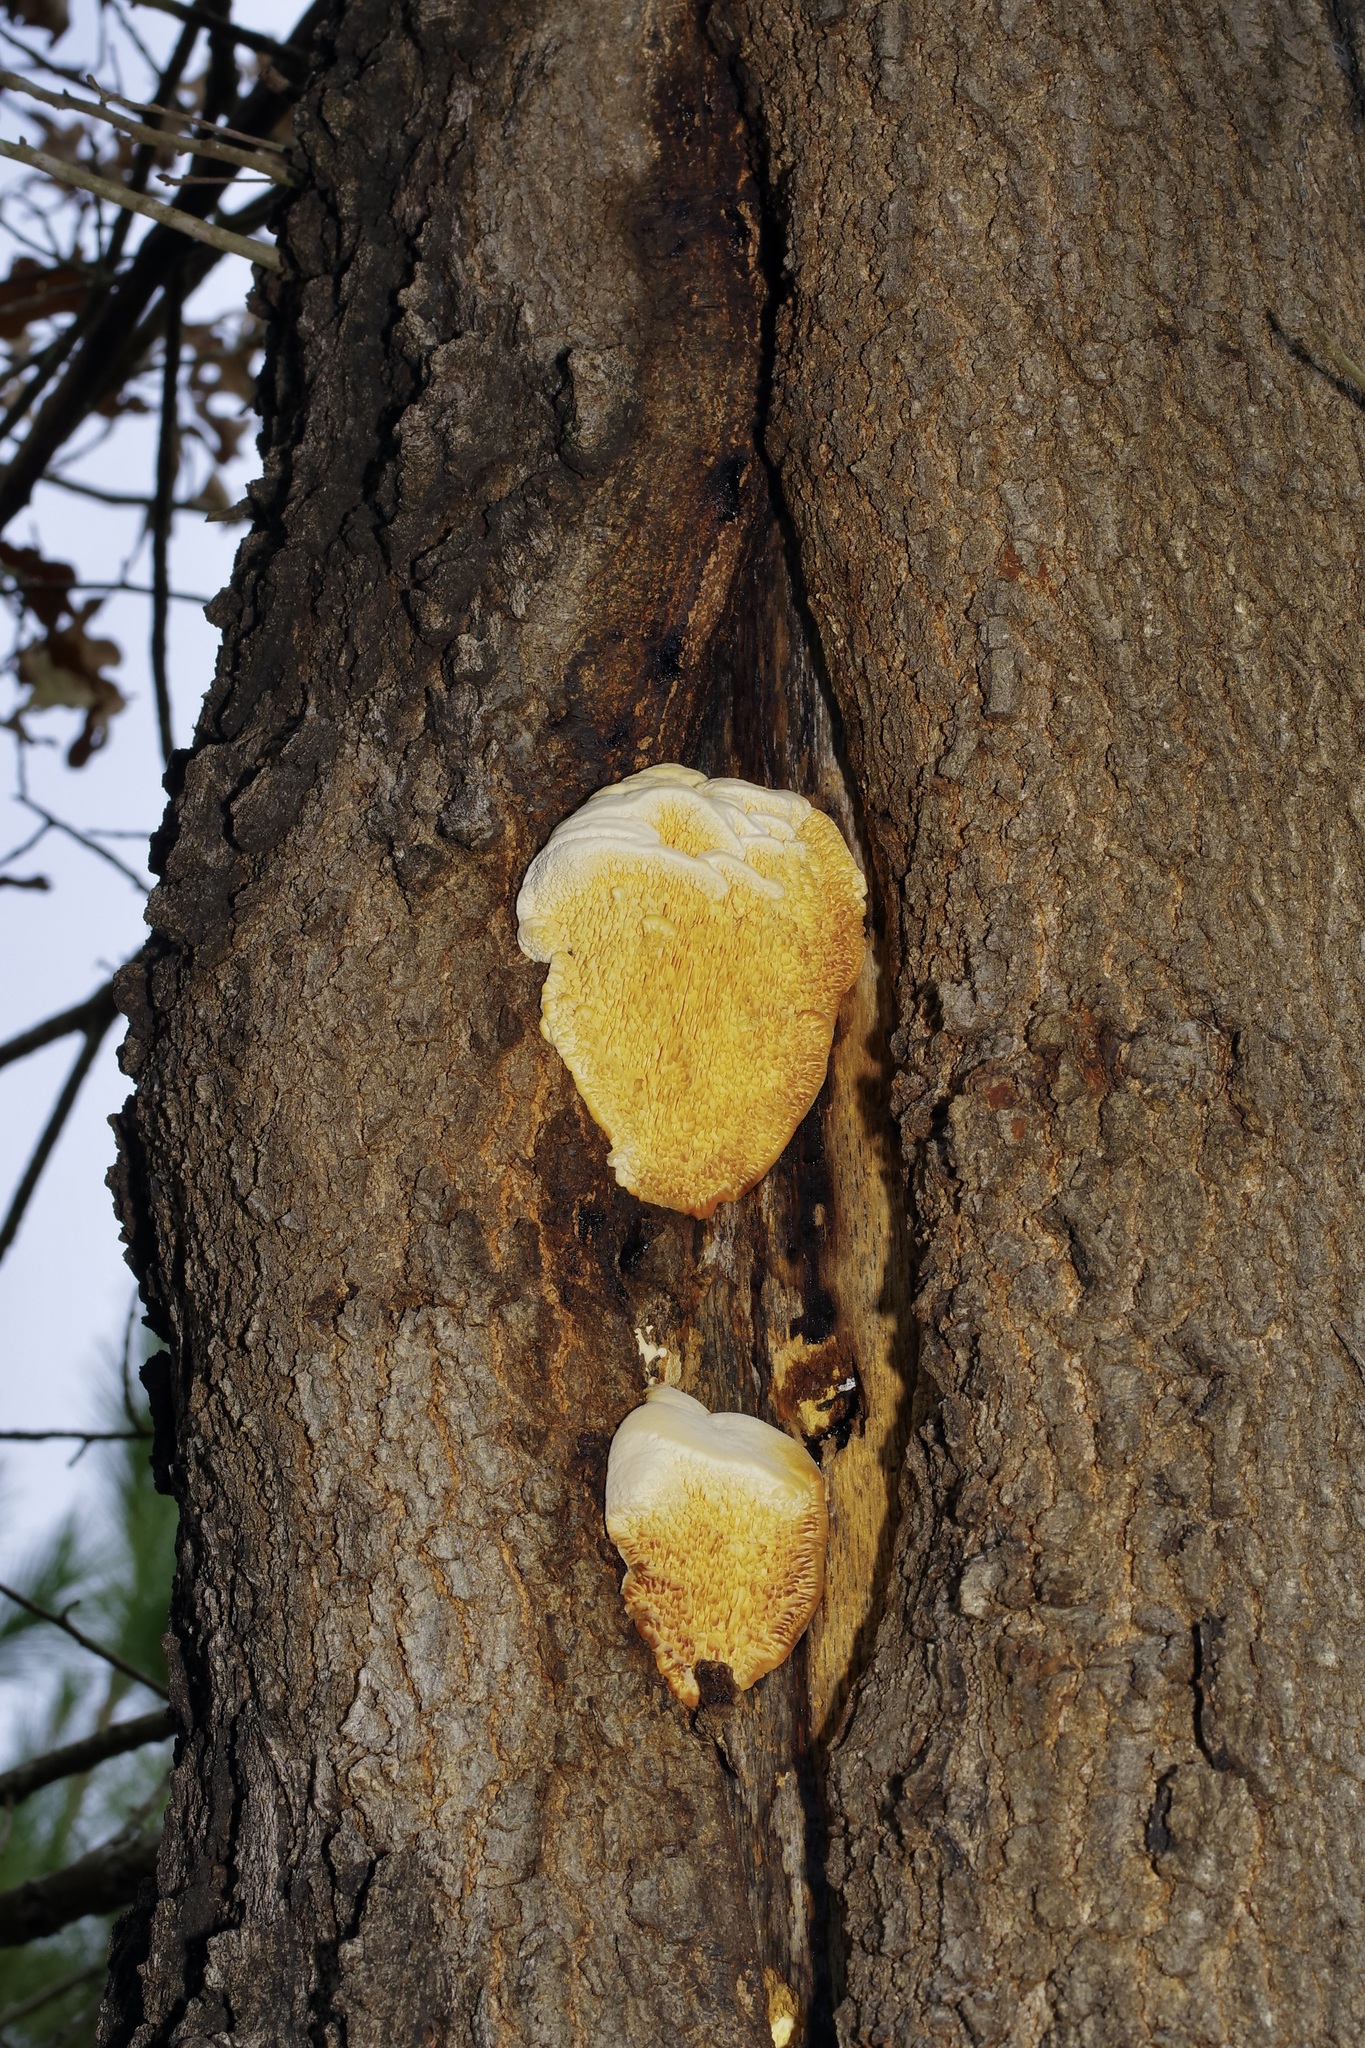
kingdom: Fungi
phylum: Basidiomycota
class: Agaricomycetes
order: Polyporales
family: Meruliaceae
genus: Irpiciporus
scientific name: Irpiciporus pachyodon
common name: Marshmallow polypore
